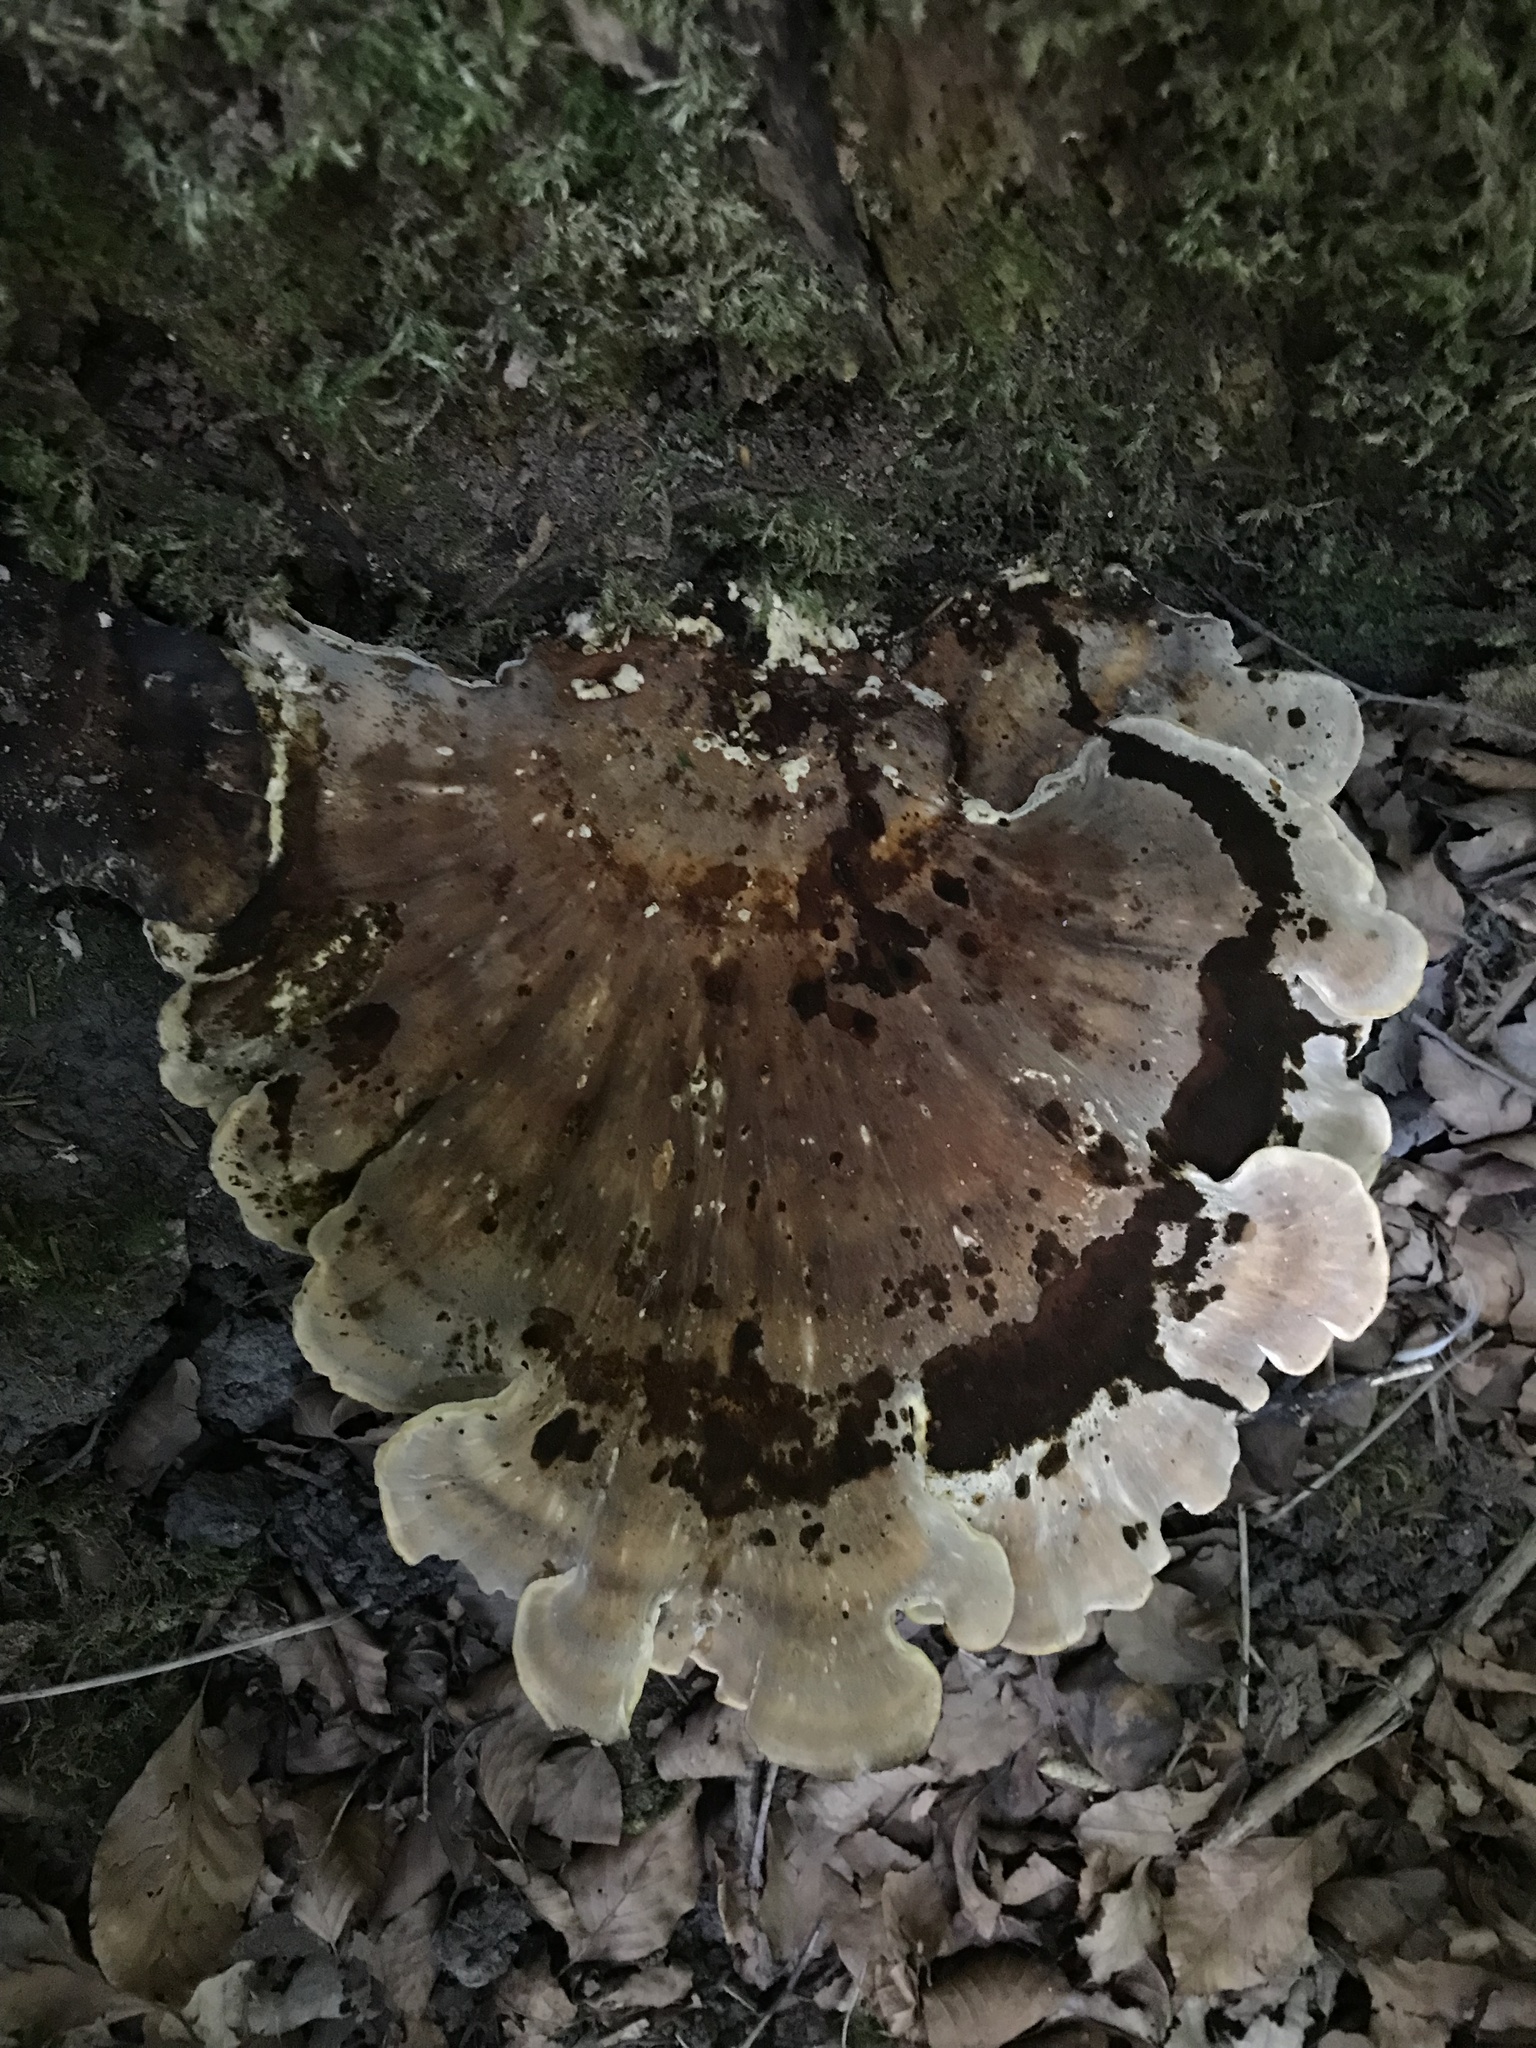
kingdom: Fungi
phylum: Basidiomycota
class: Agaricomycetes
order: Polyporales
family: Meripilaceae
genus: Meripilus
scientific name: Meripilus giganteus
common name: Giant polypore
